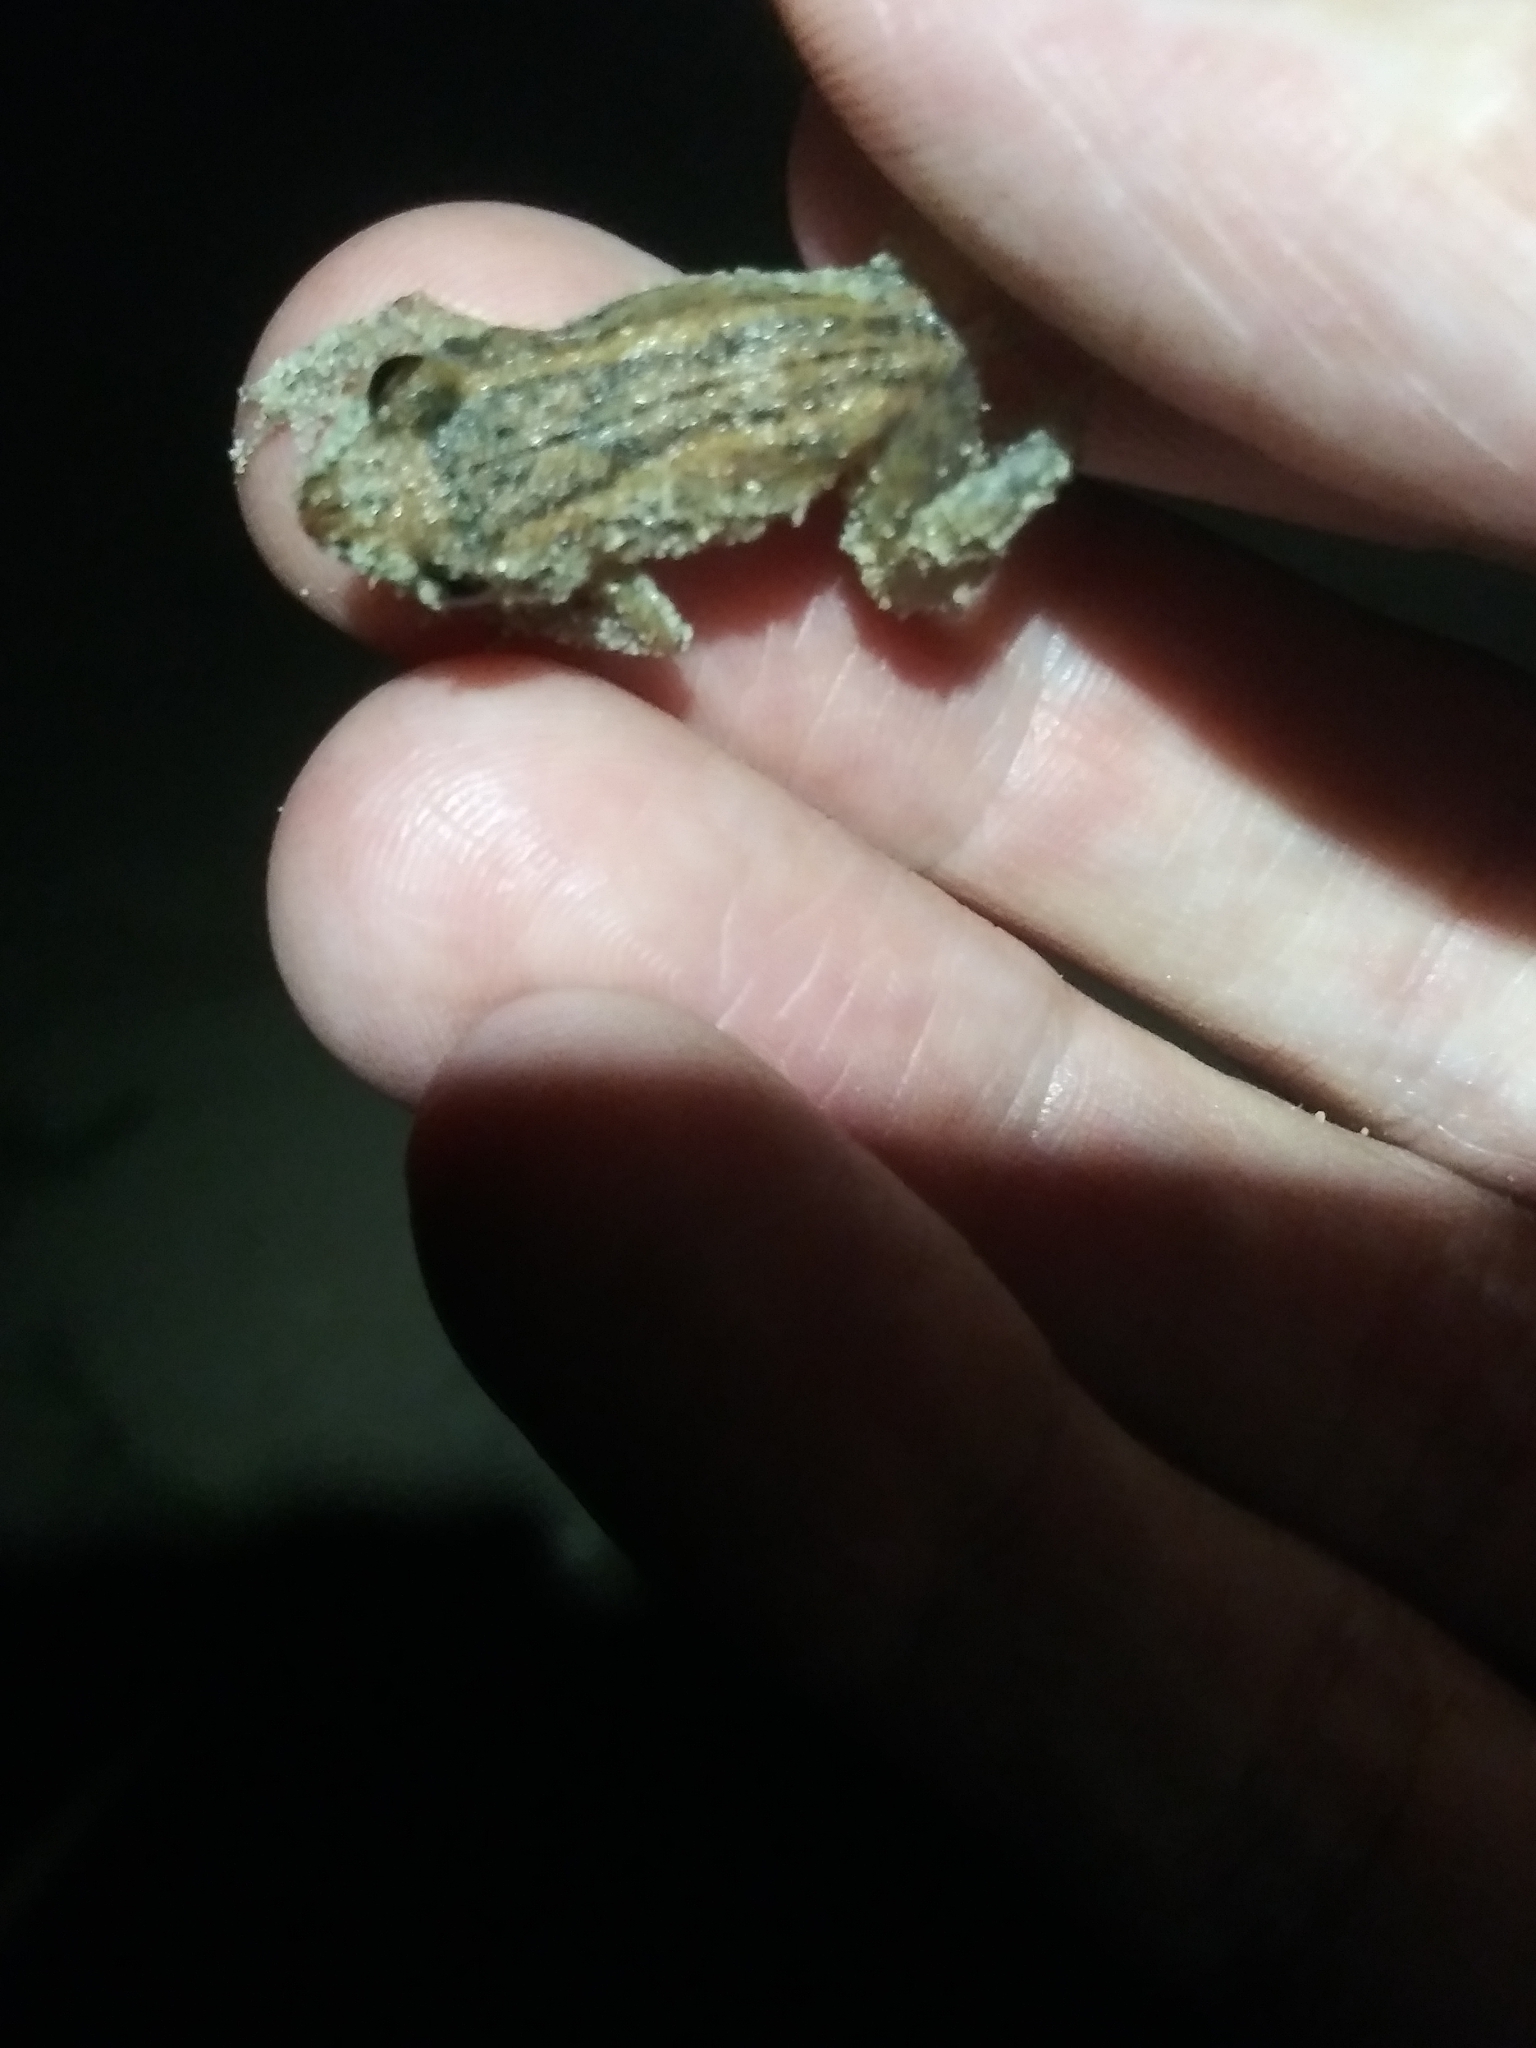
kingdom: Animalia
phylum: Chordata
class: Amphibia
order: Anura
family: Eleutherodactylidae
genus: Eleutherodactylus
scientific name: Eleutherodactylus planirostris
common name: Greenhouse frog
